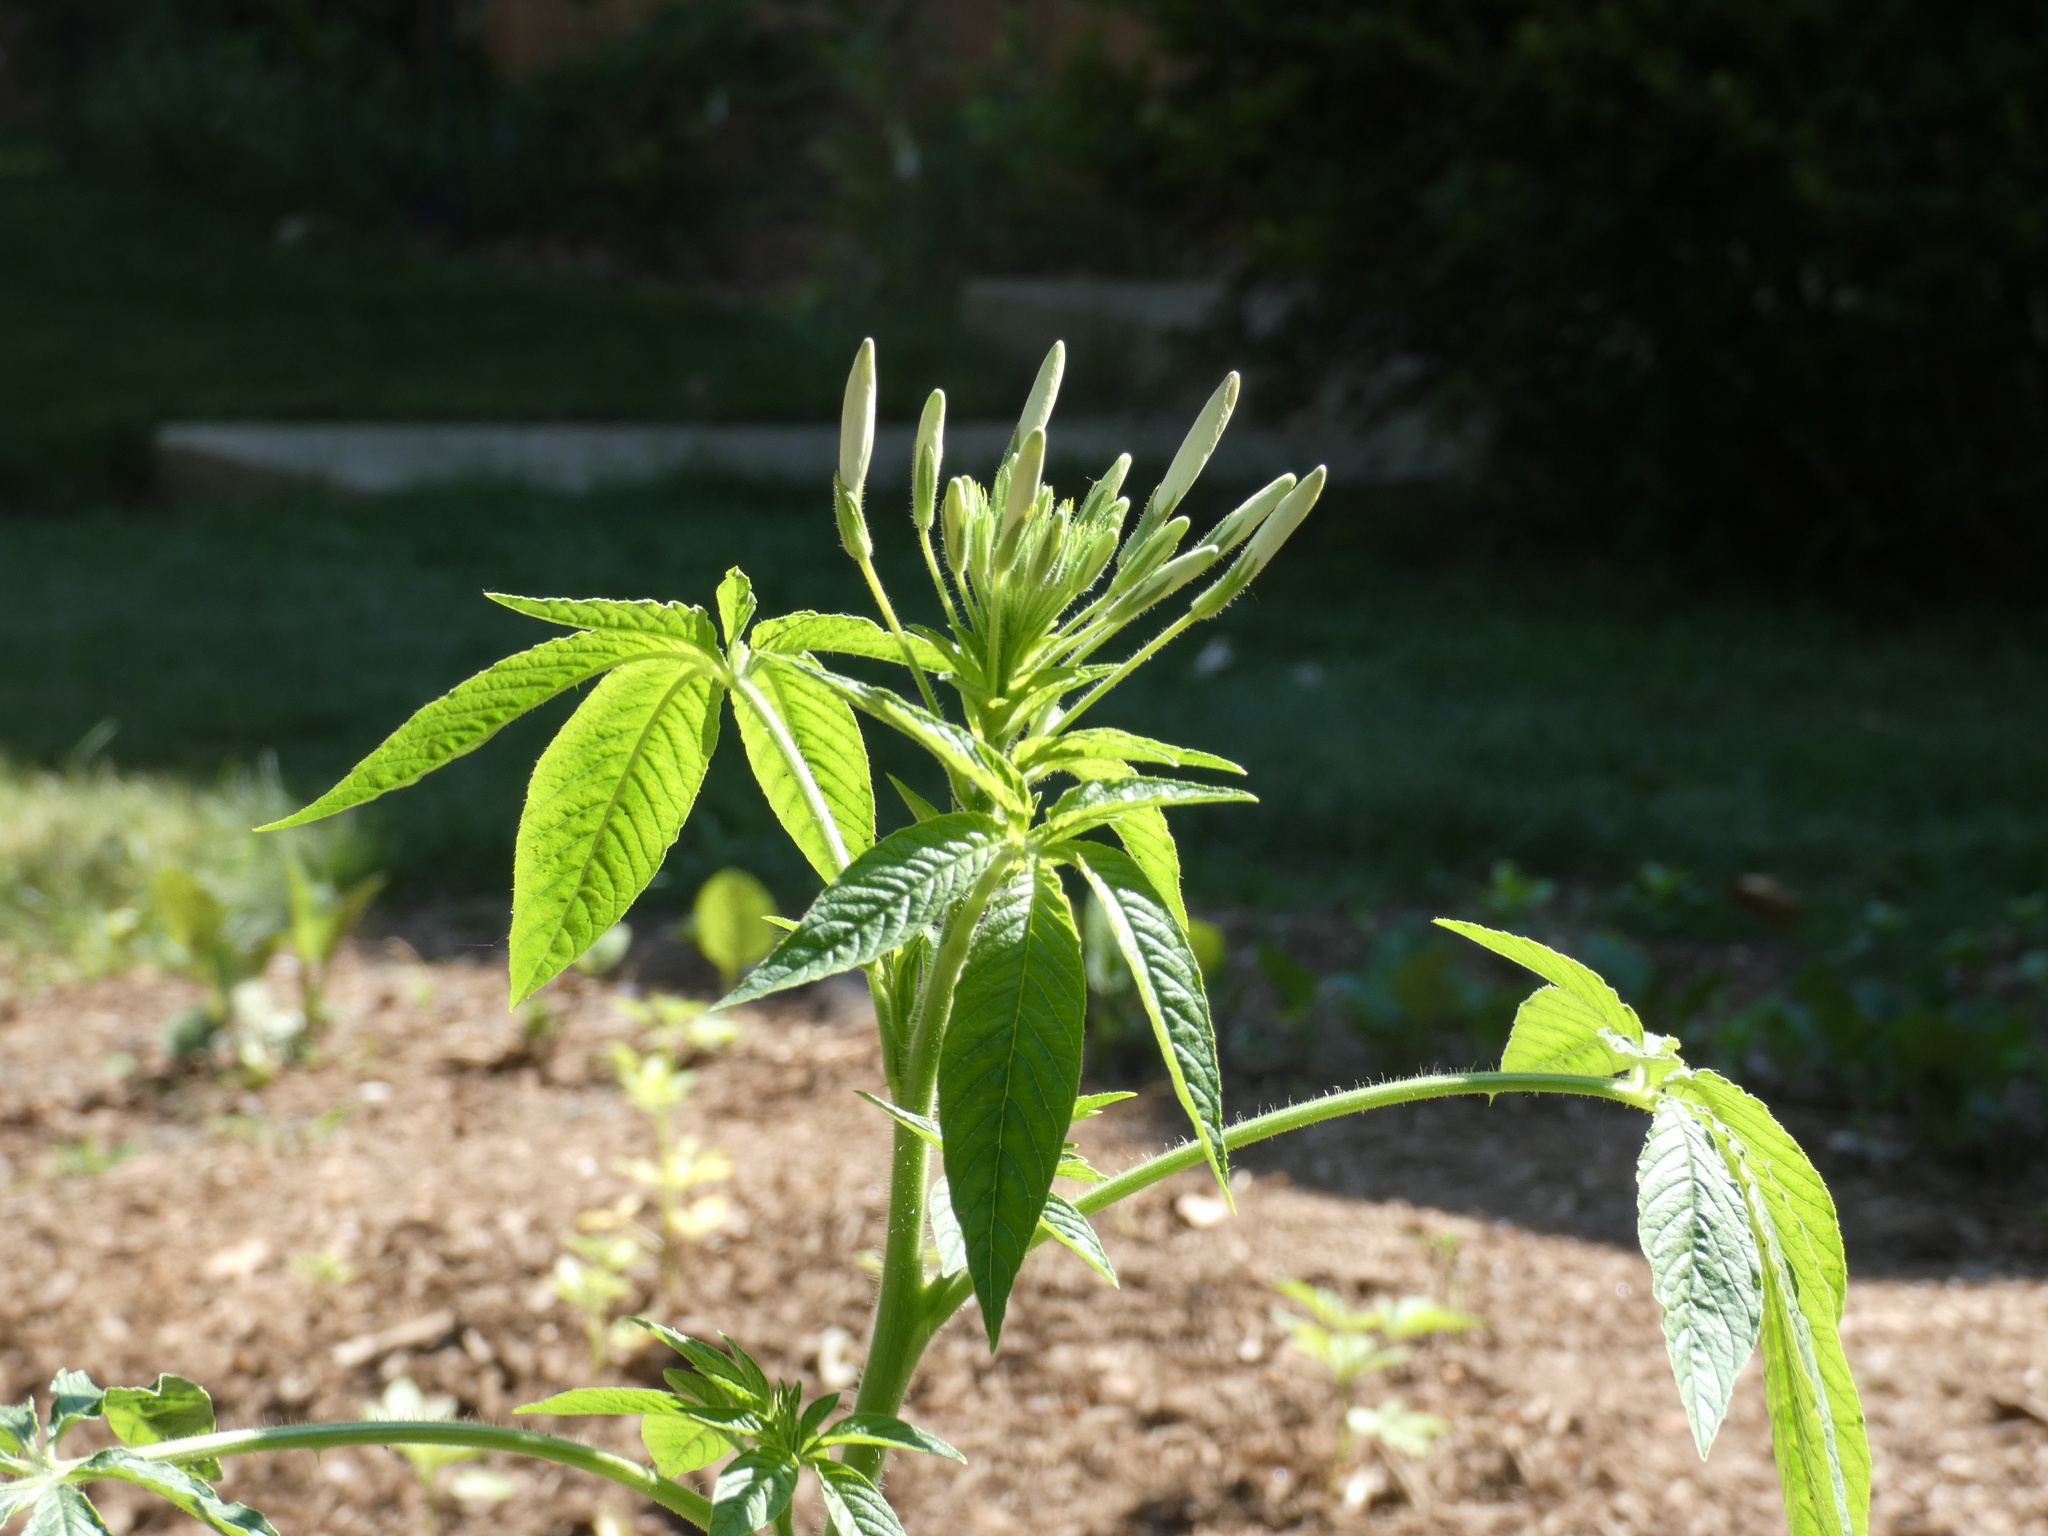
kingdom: Plantae
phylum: Tracheophyta
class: Magnoliopsida
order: Brassicales
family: Cleomaceae
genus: Tarenaya
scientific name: Tarenaya houtteana
